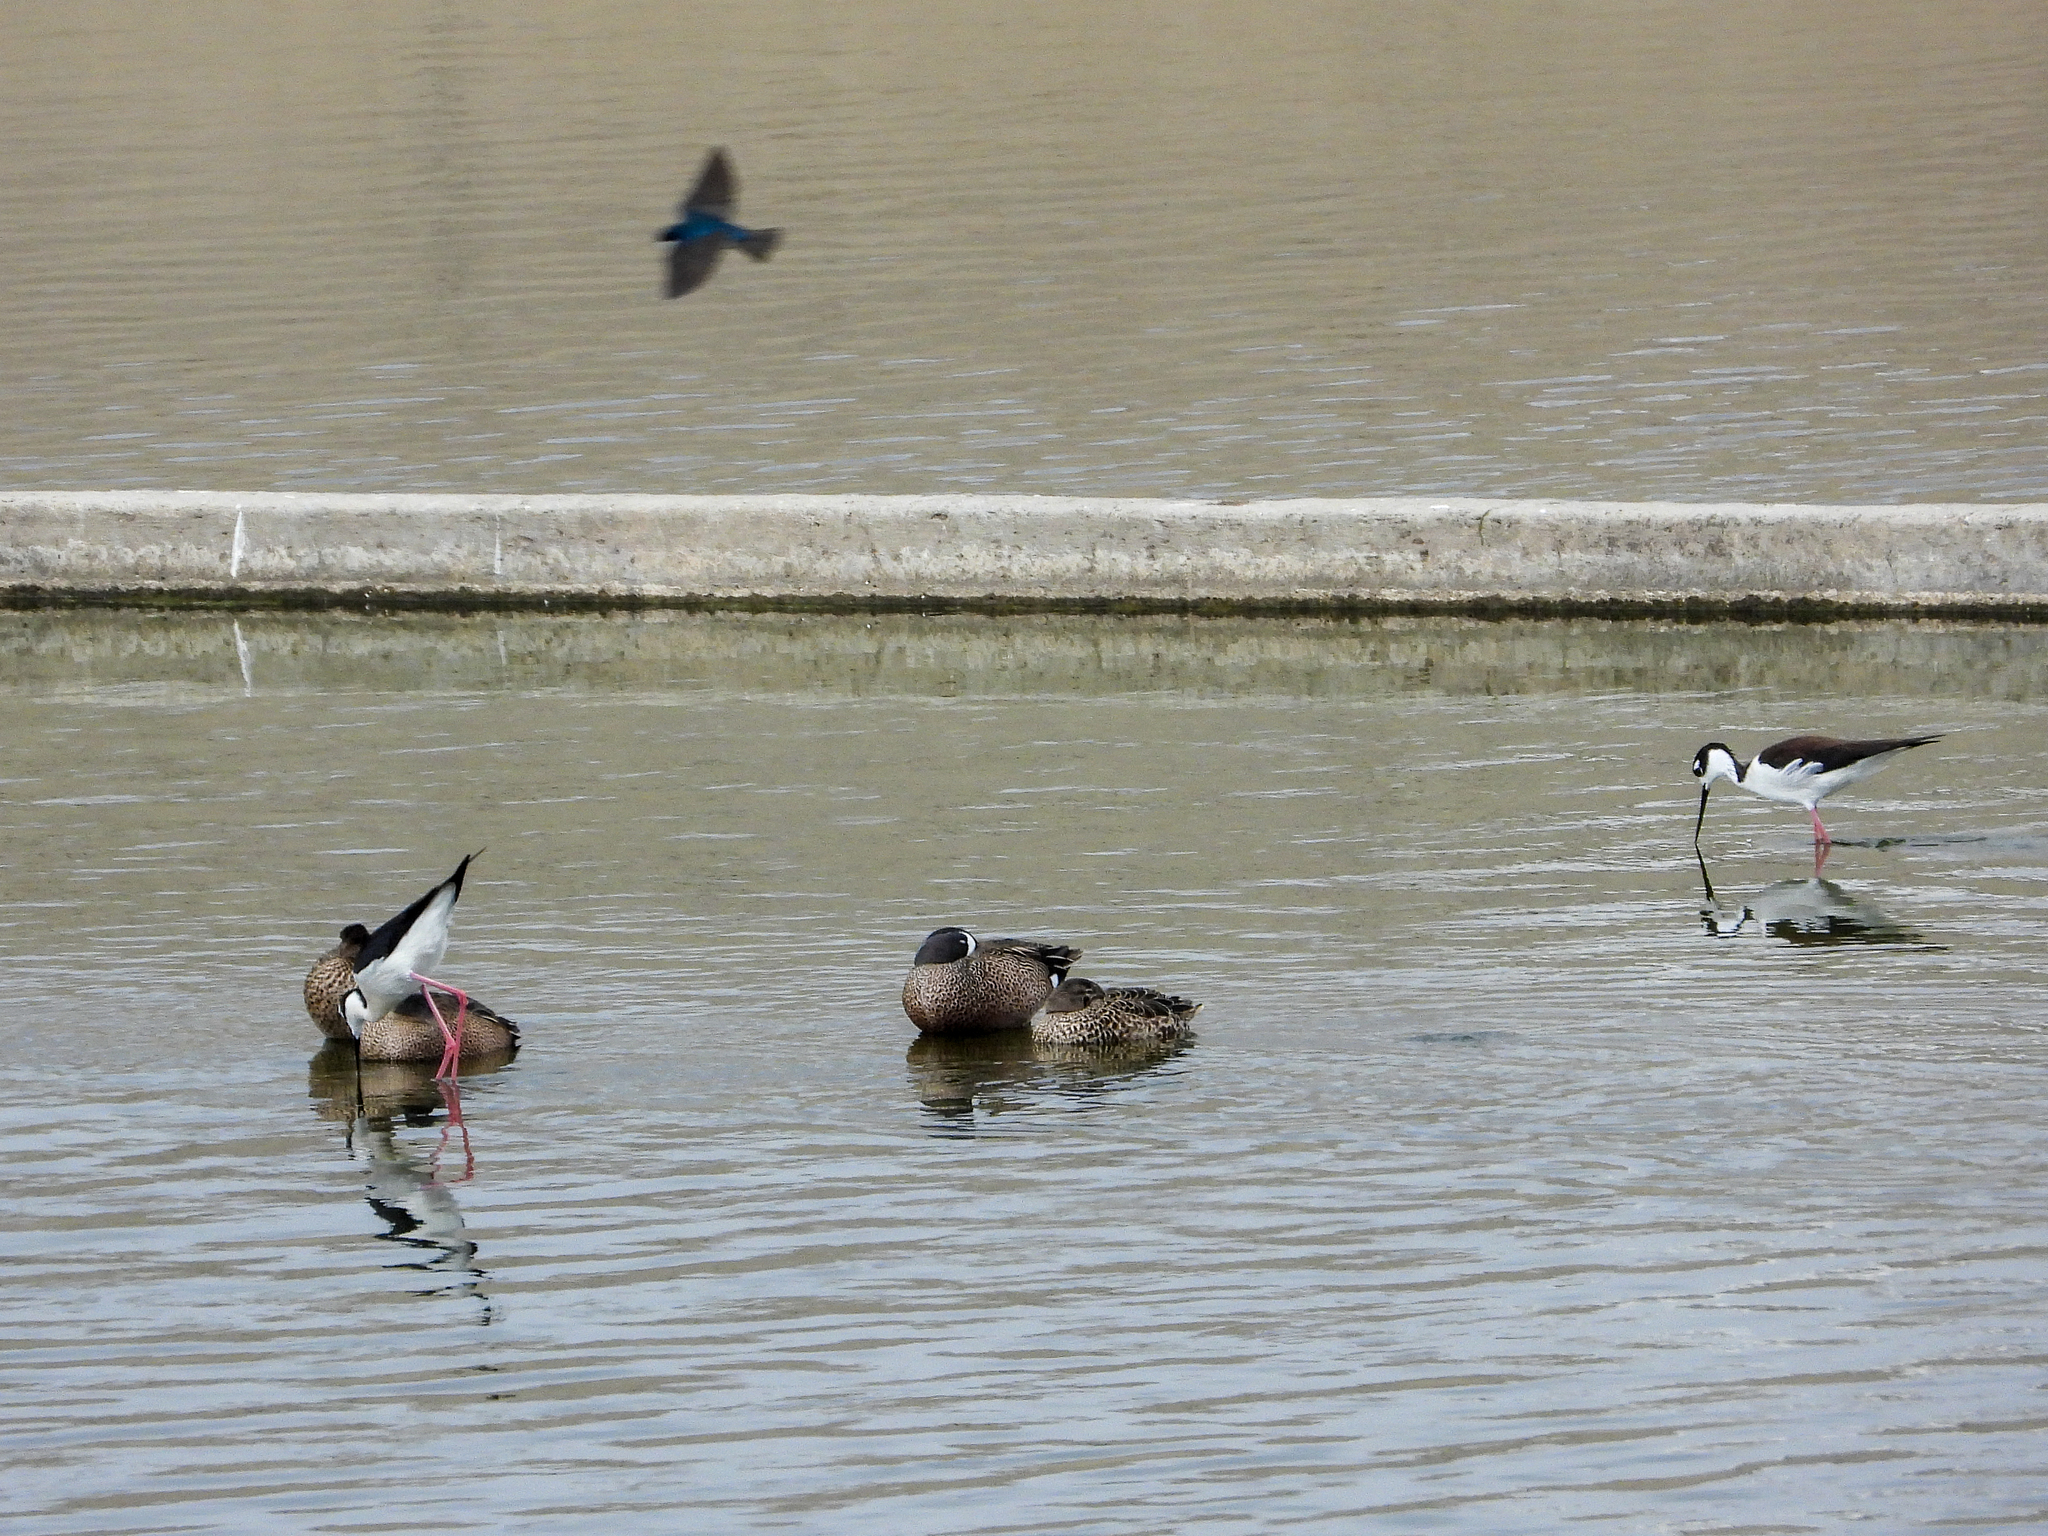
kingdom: Animalia
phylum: Chordata
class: Aves
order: Charadriiformes
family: Recurvirostridae
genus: Himantopus
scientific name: Himantopus mexicanus
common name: Black-necked stilt
